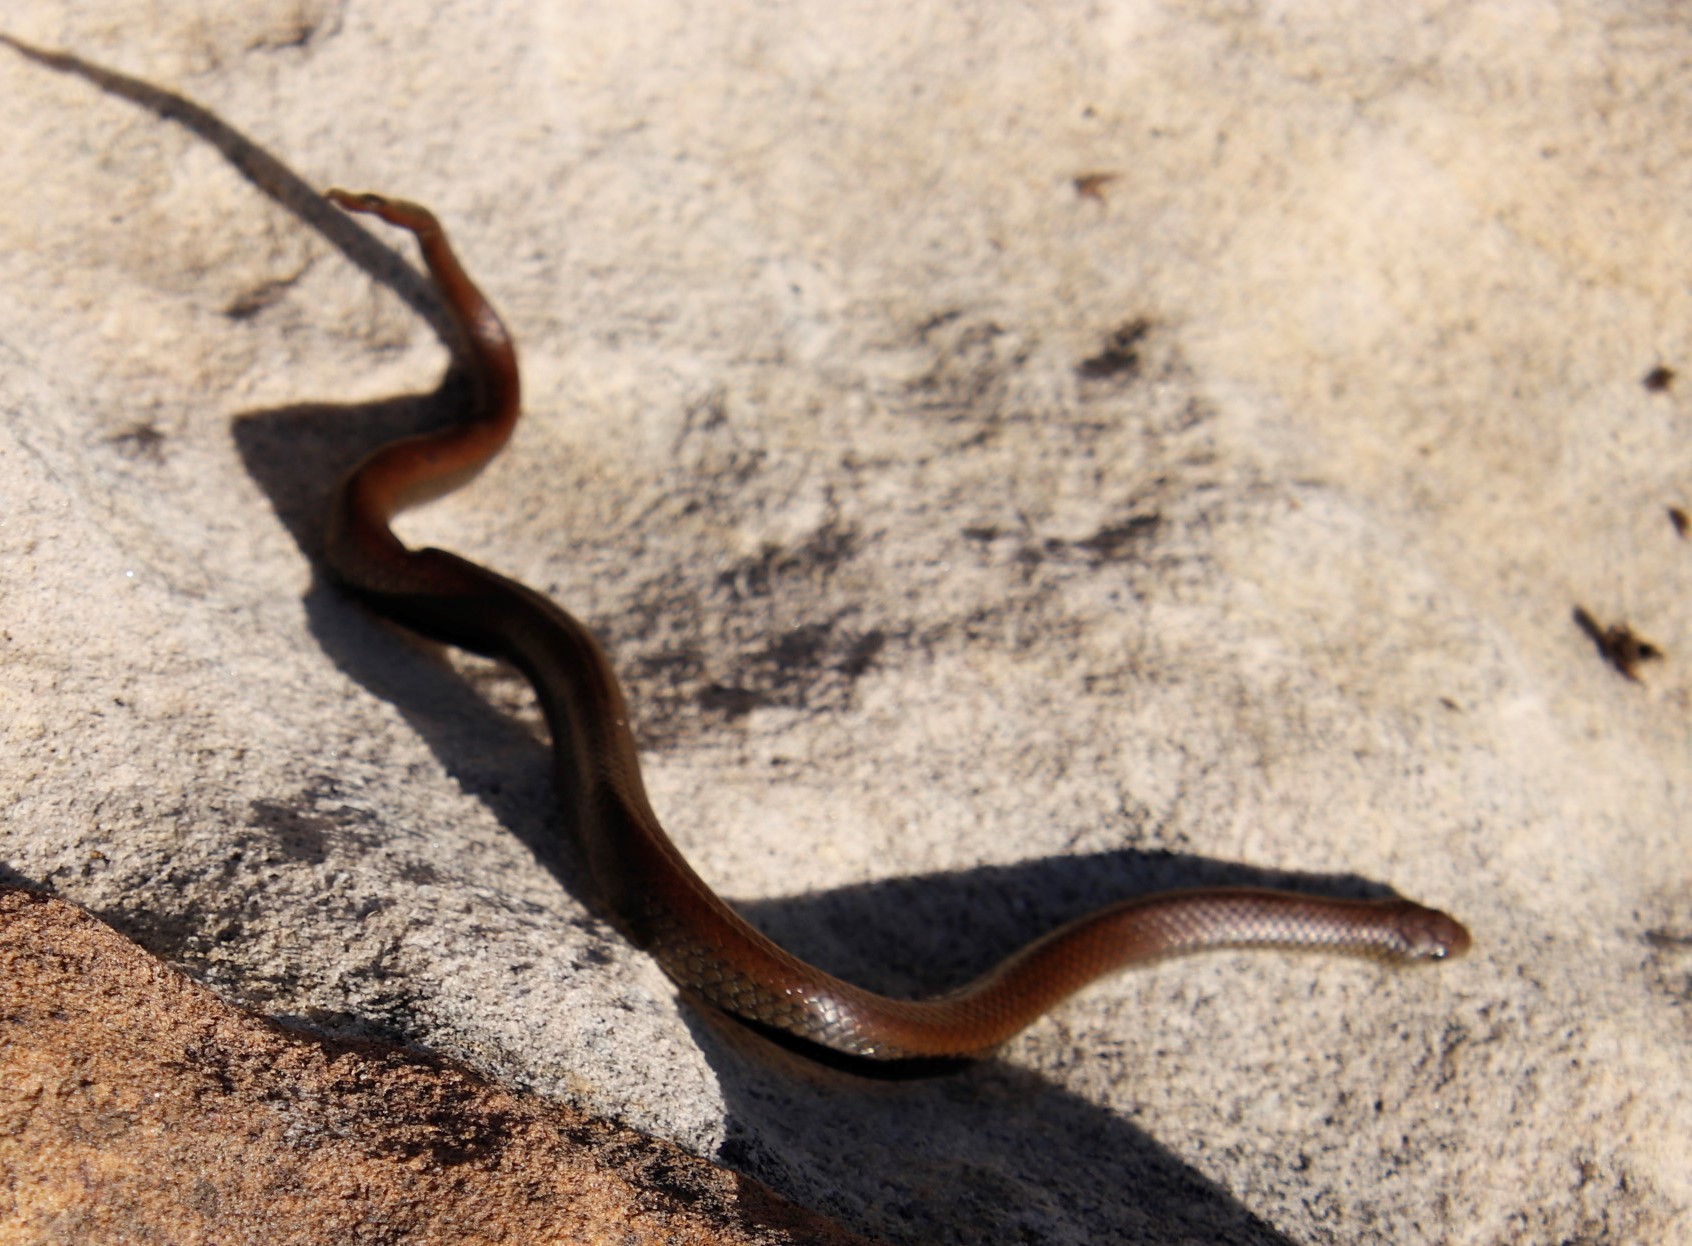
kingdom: Animalia
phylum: Chordata
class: Squamata
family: Pseudoxyrhophiidae
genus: Duberria
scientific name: Duberria lutrix
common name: Common slug eater
